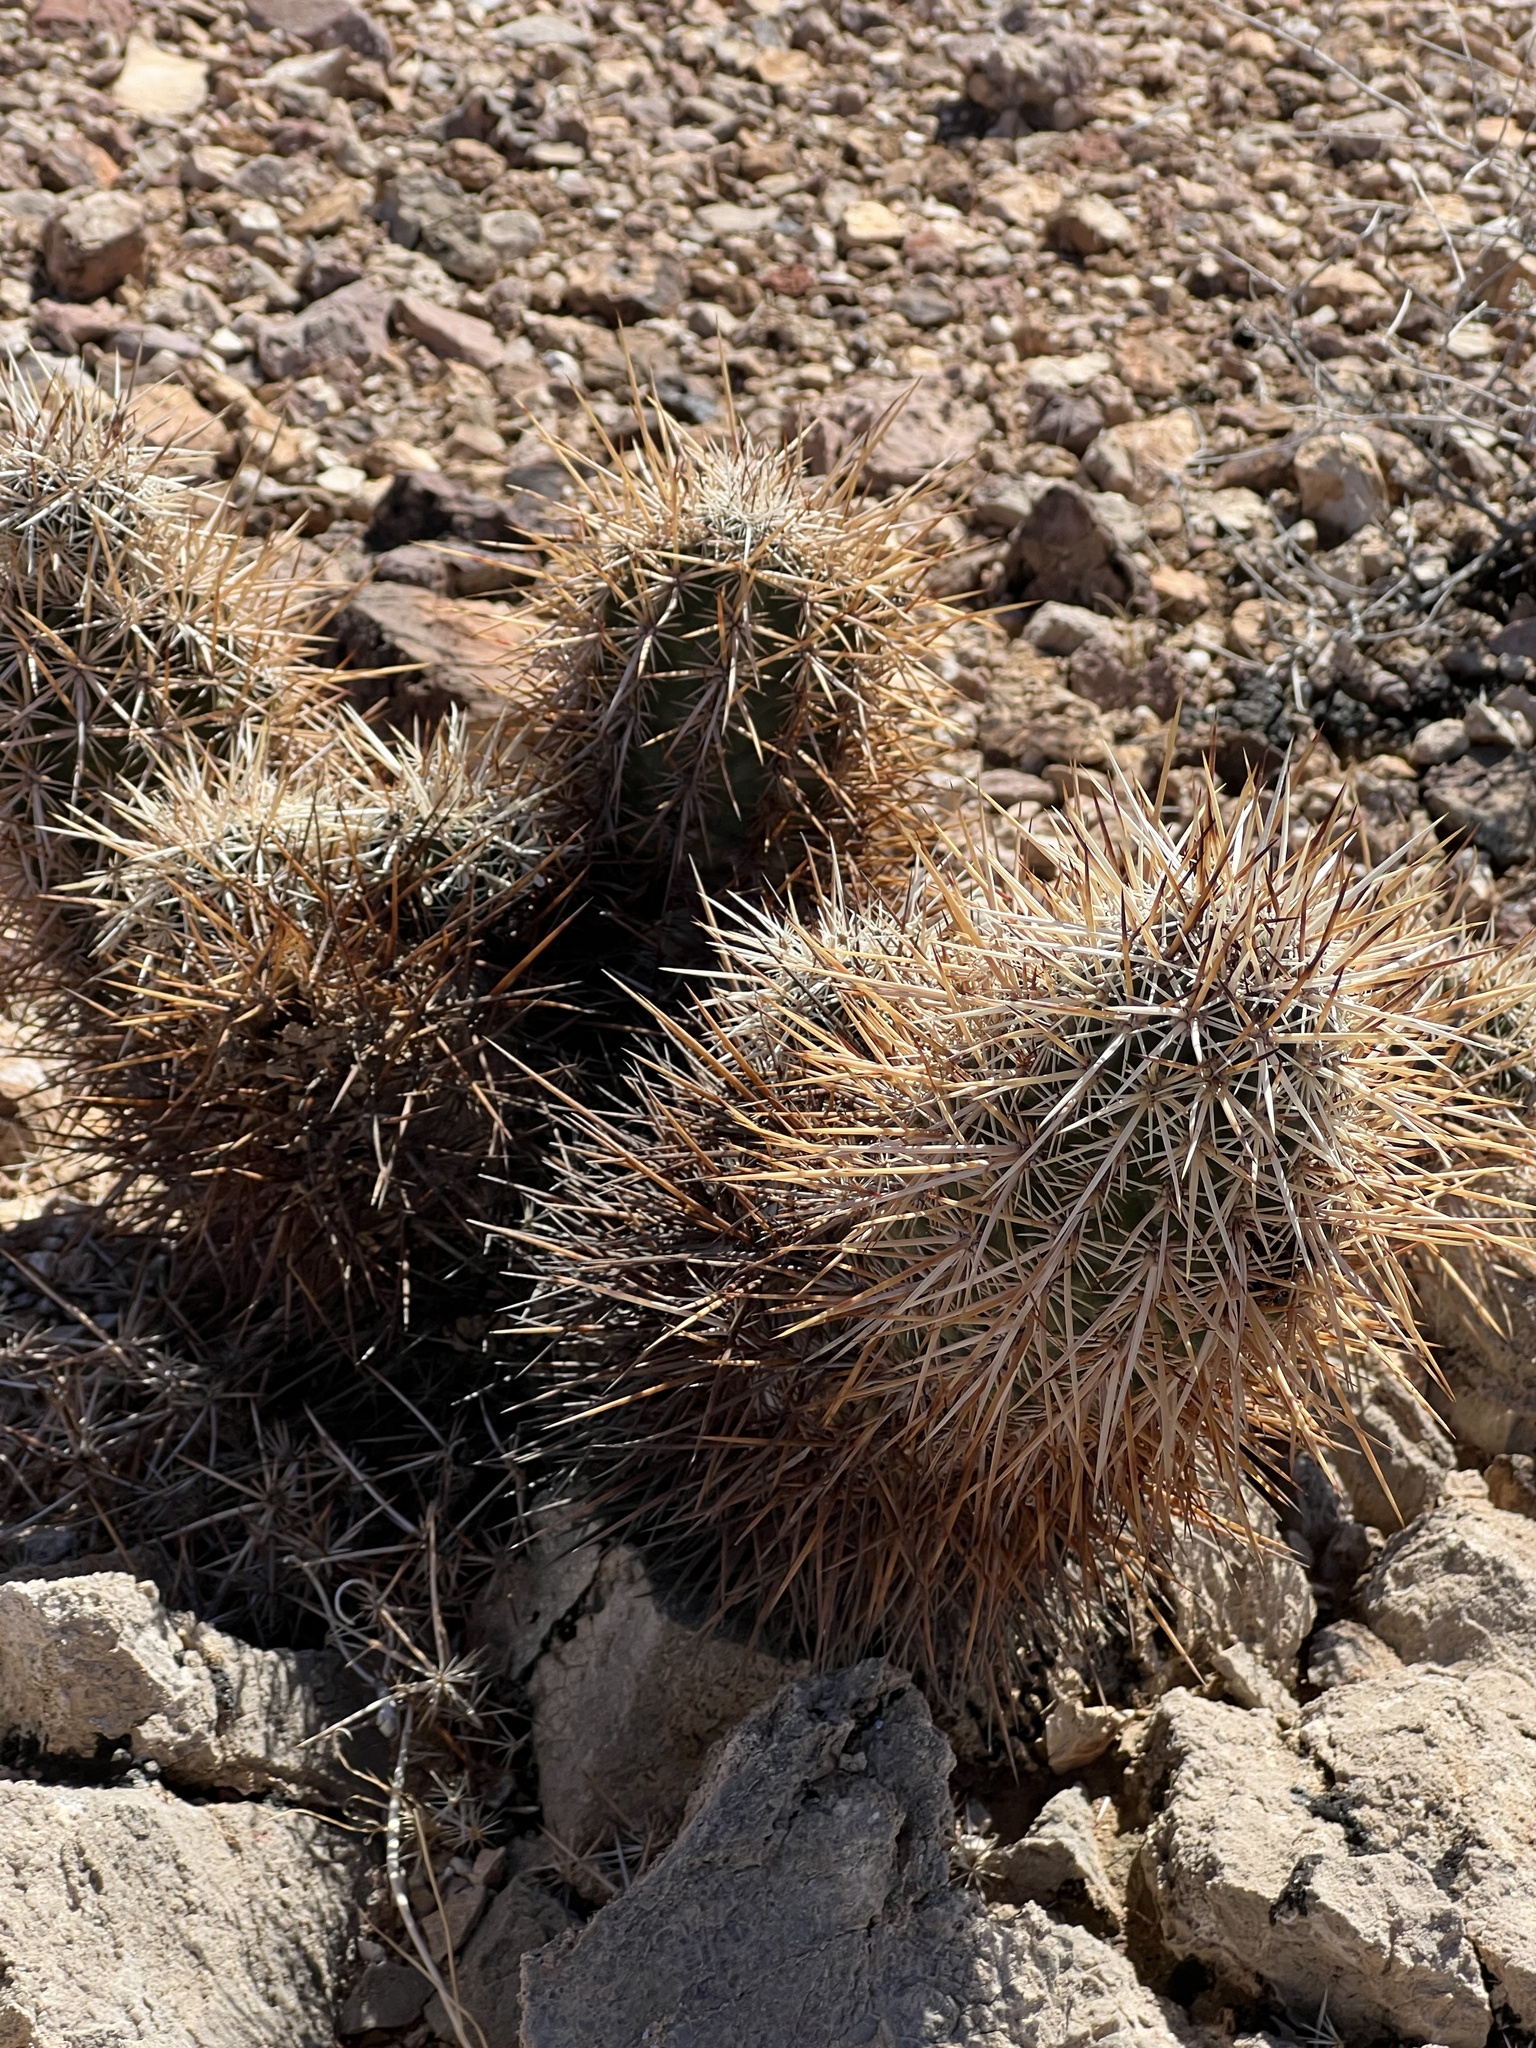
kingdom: Plantae
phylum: Tracheophyta
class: Magnoliopsida
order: Caryophyllales
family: Cactaceae
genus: Echinocereus
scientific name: Echinocereus engelmannii
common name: Engelmann's hedgehog cactus
